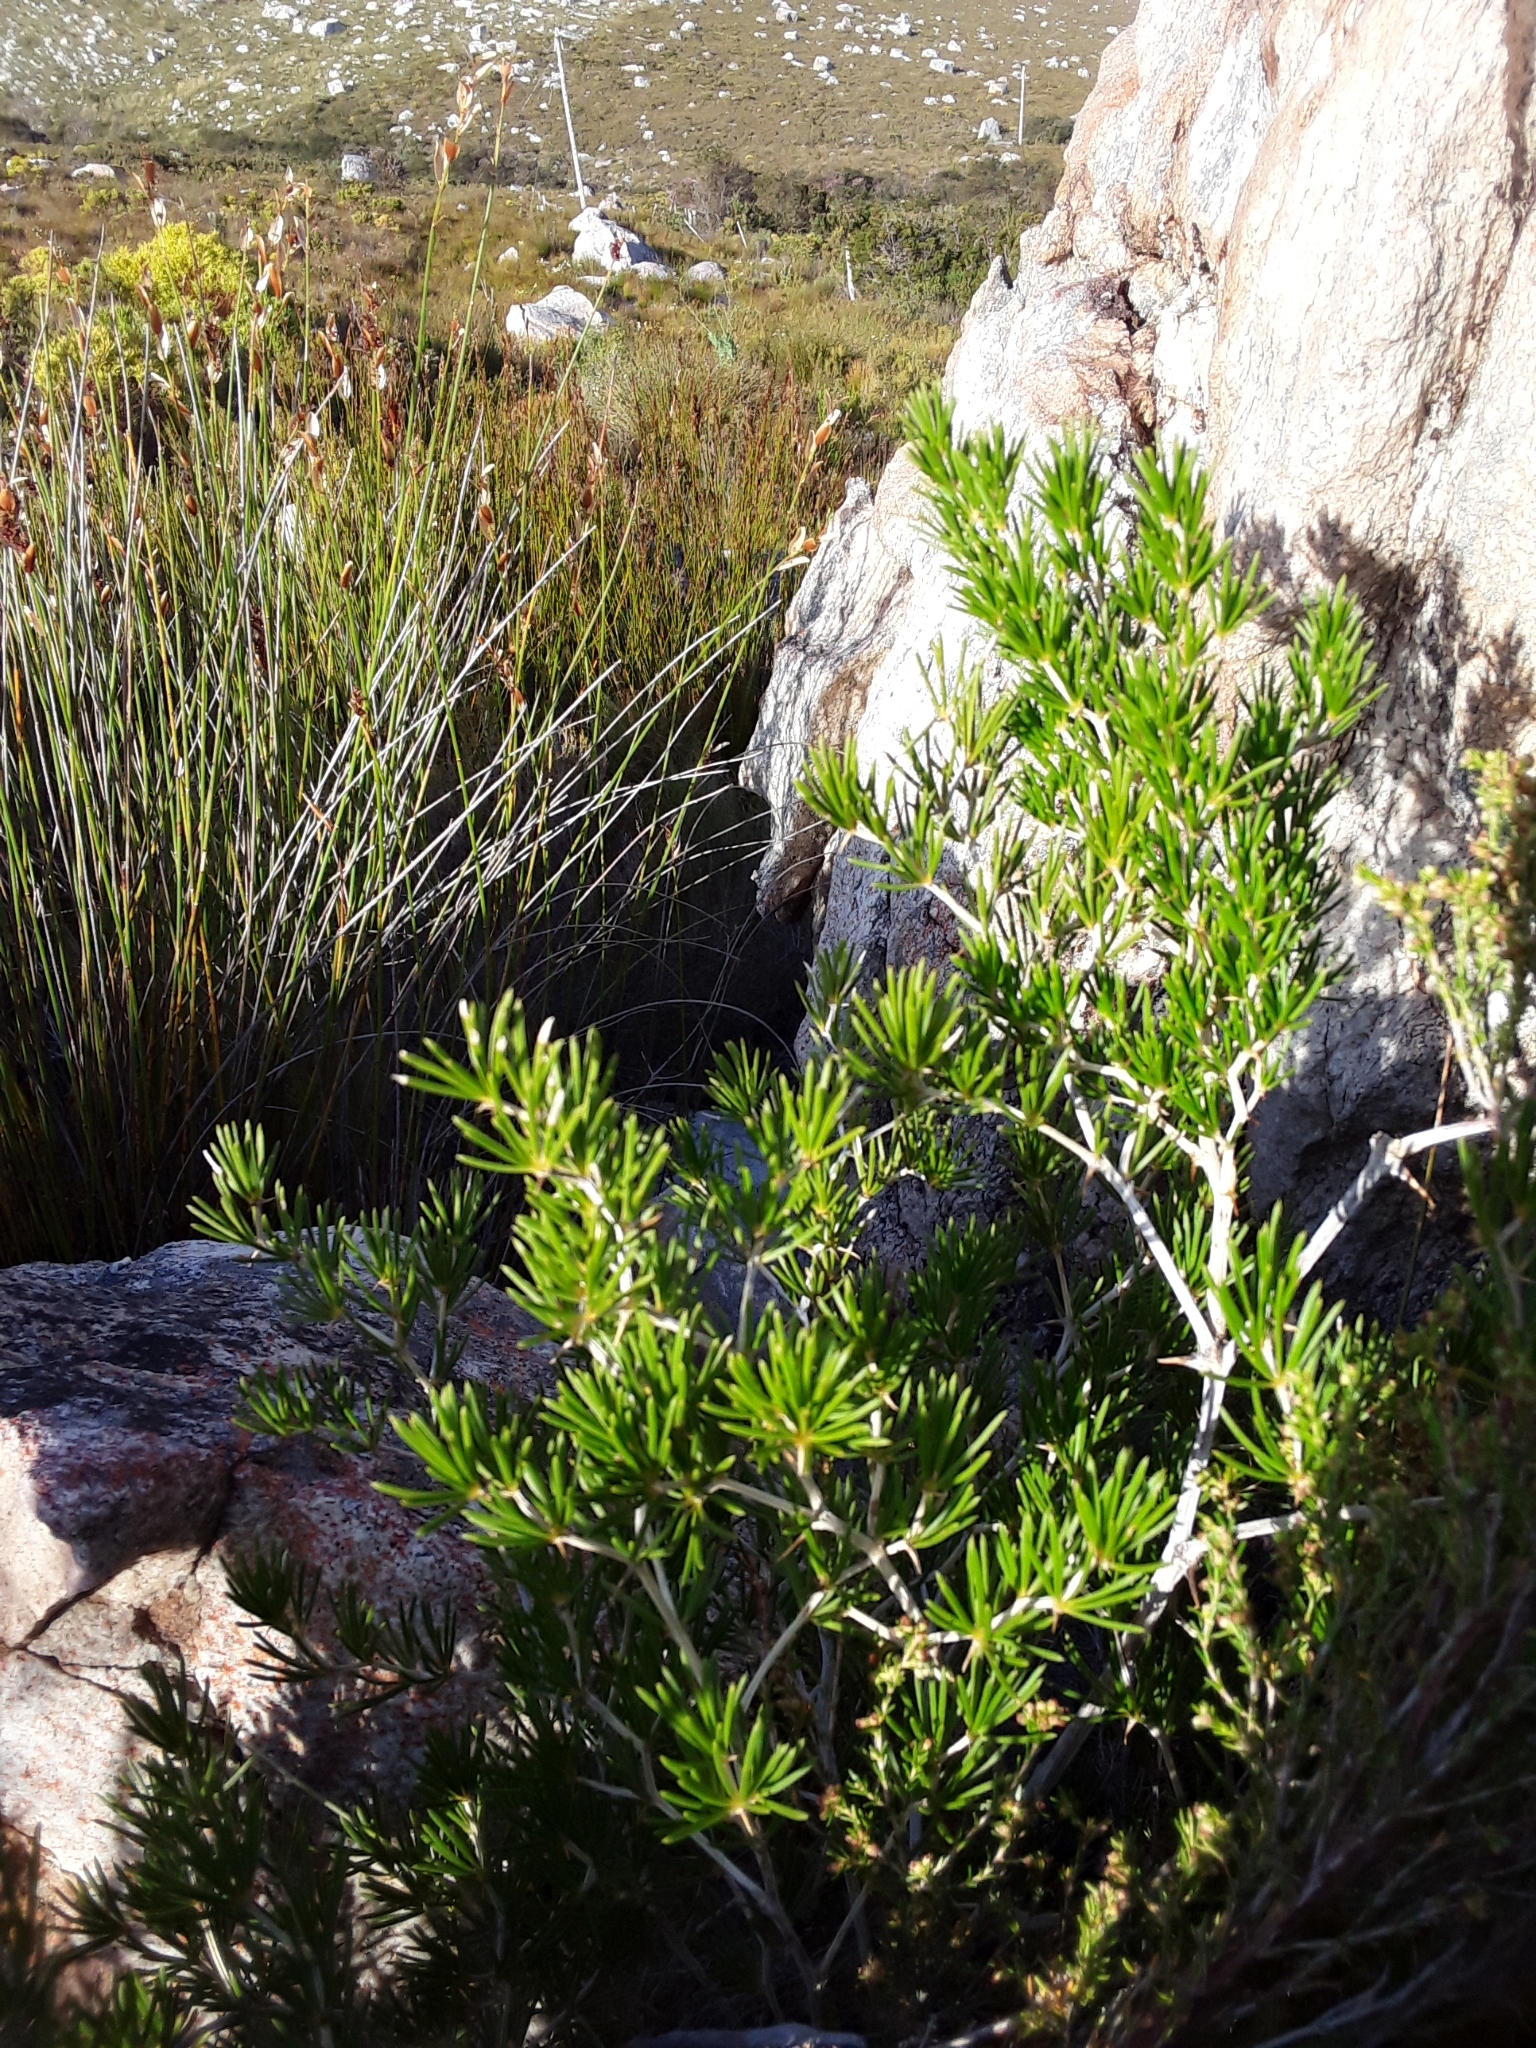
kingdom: Plantae
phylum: Tracheophyta
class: Liliopsida
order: Asparagales
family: Asparagaceae
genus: Asparagus
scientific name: Asparagus lignosus
